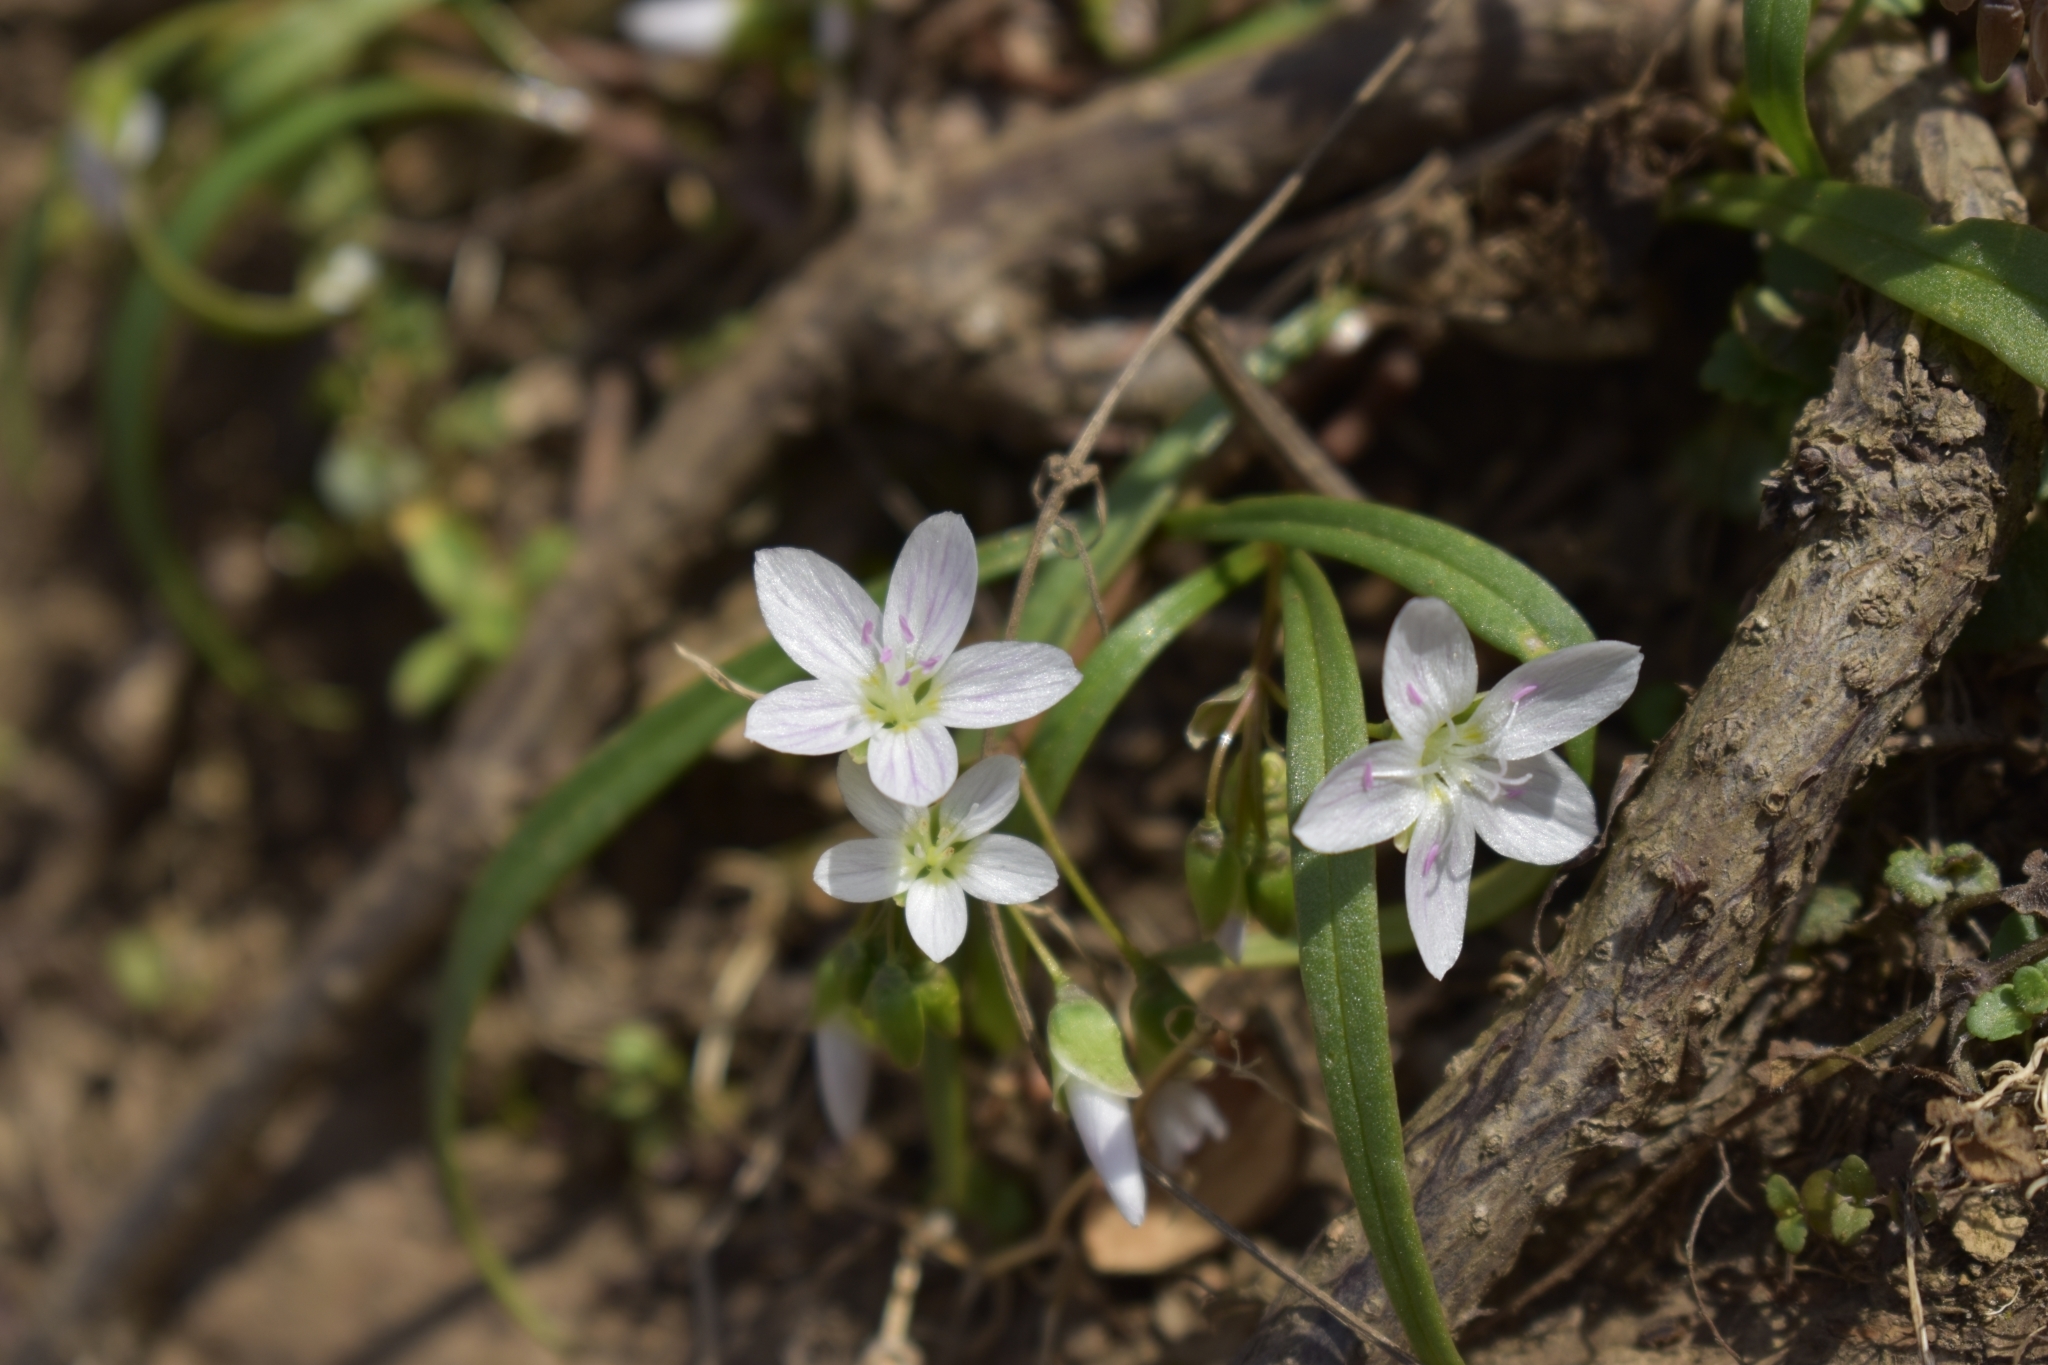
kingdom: Plantae
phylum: Tracheophyta
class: Magnoliopsida
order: Caryophyllales
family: Montiaceae
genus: Claytonia
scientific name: Claytonia virginica
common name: Virginia springbeauty
